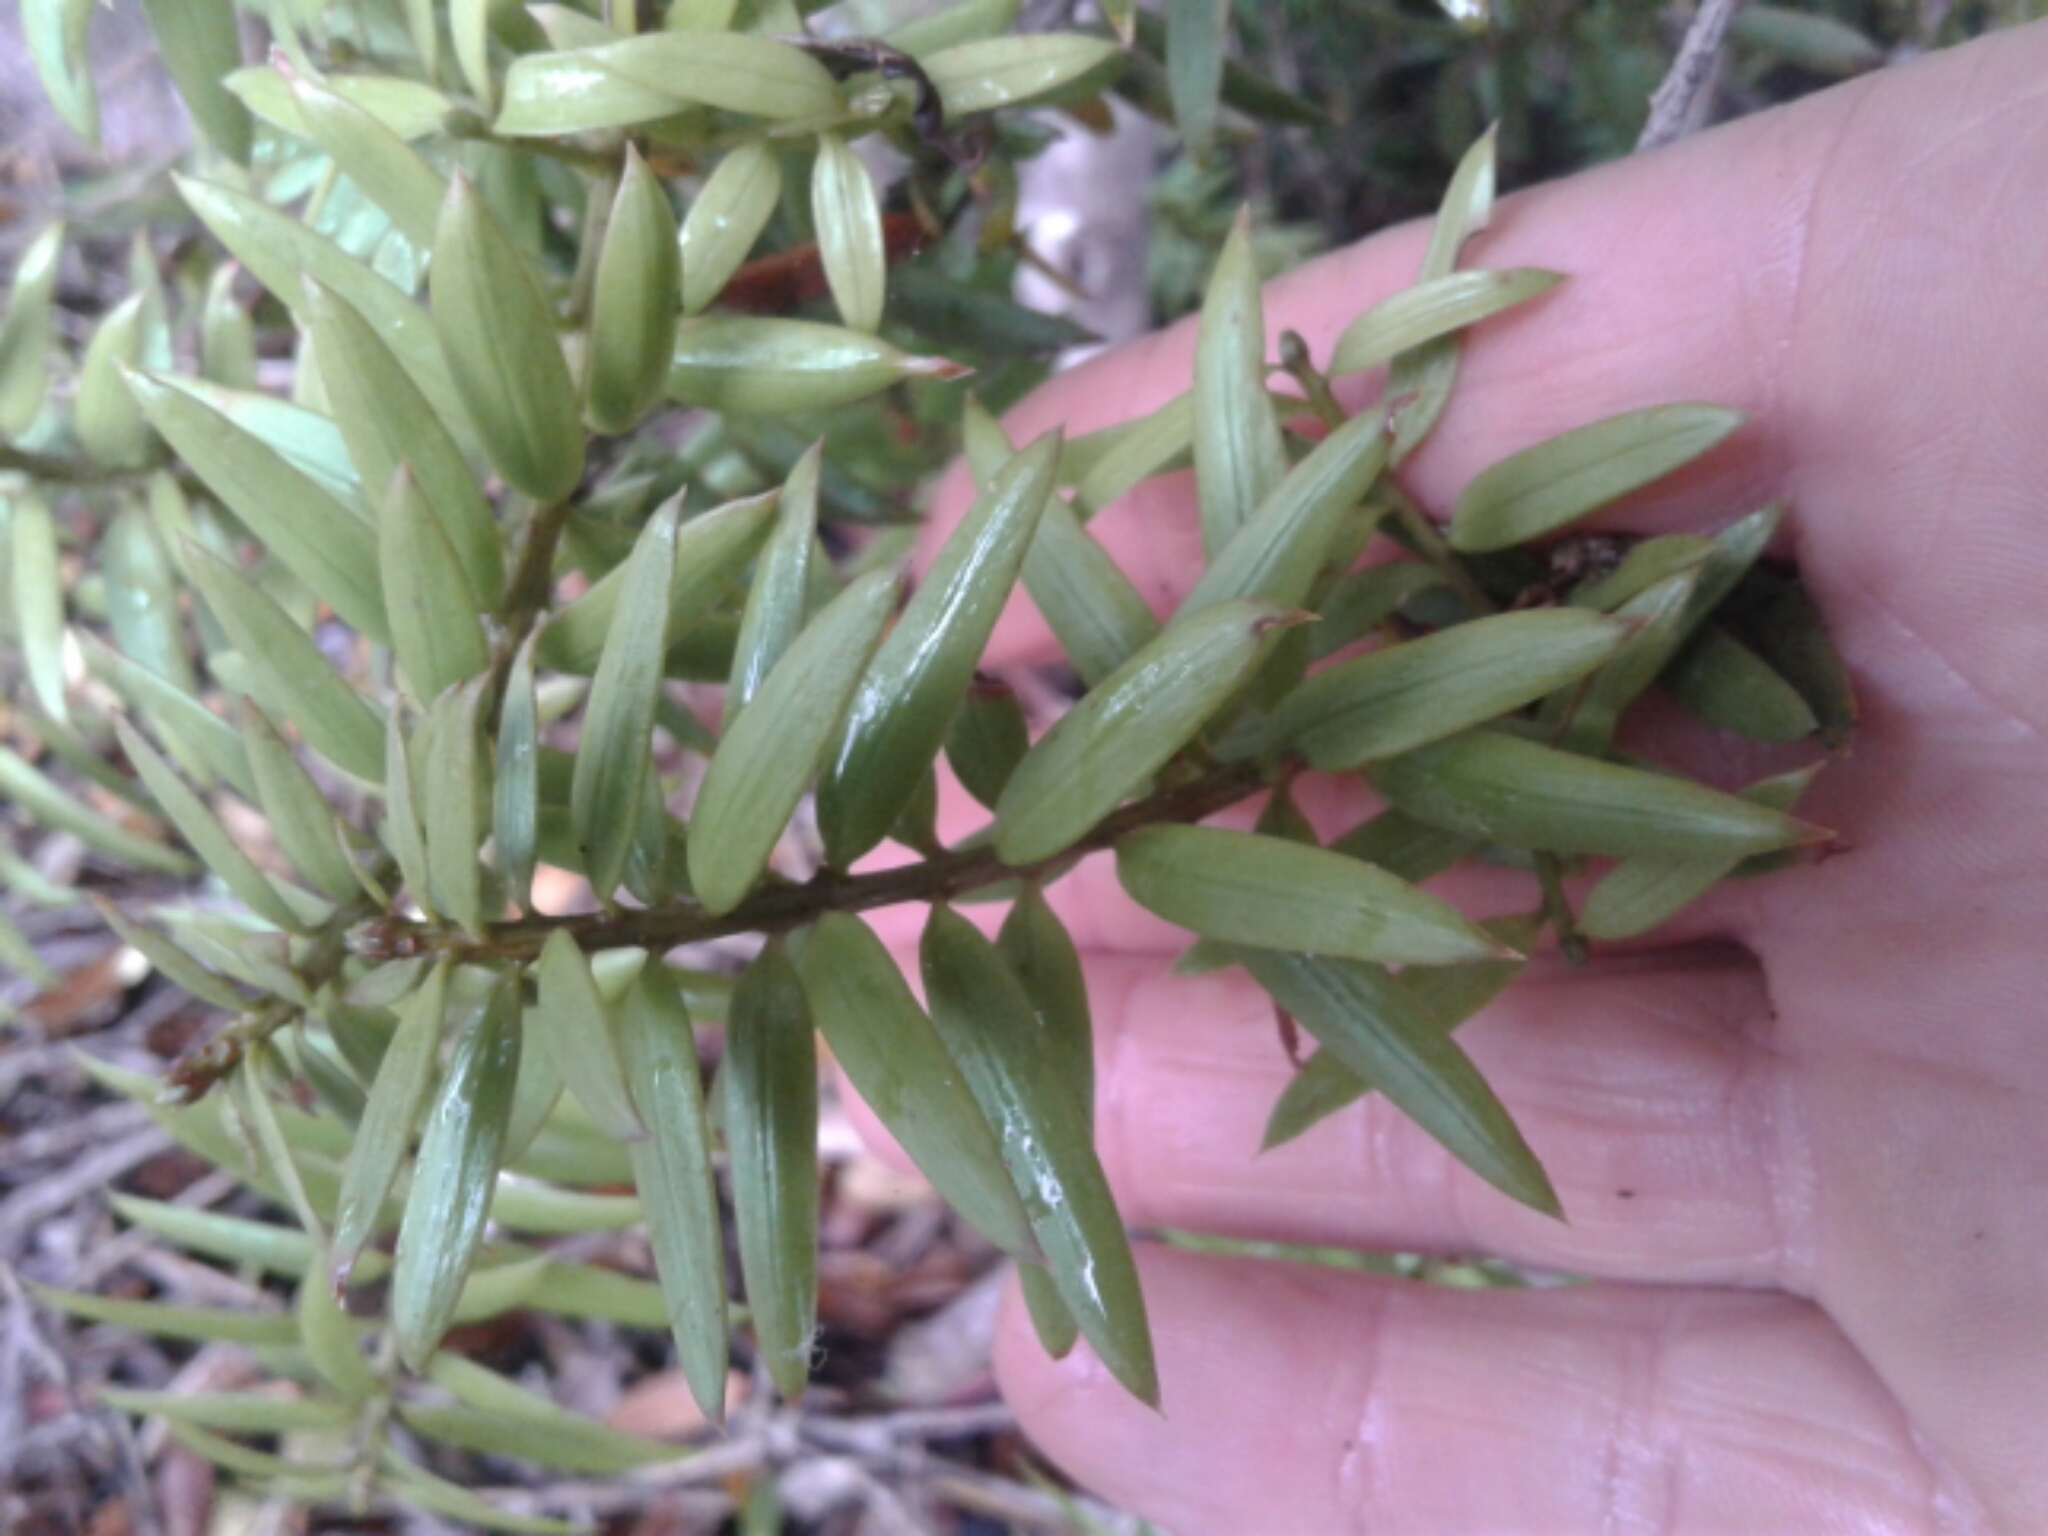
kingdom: Plantae
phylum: Tracheophyta
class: Pinopsida
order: Pinales
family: Podocarpaceae
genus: Podocarpus
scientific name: Podocarpus laetus
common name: Hall's totara
